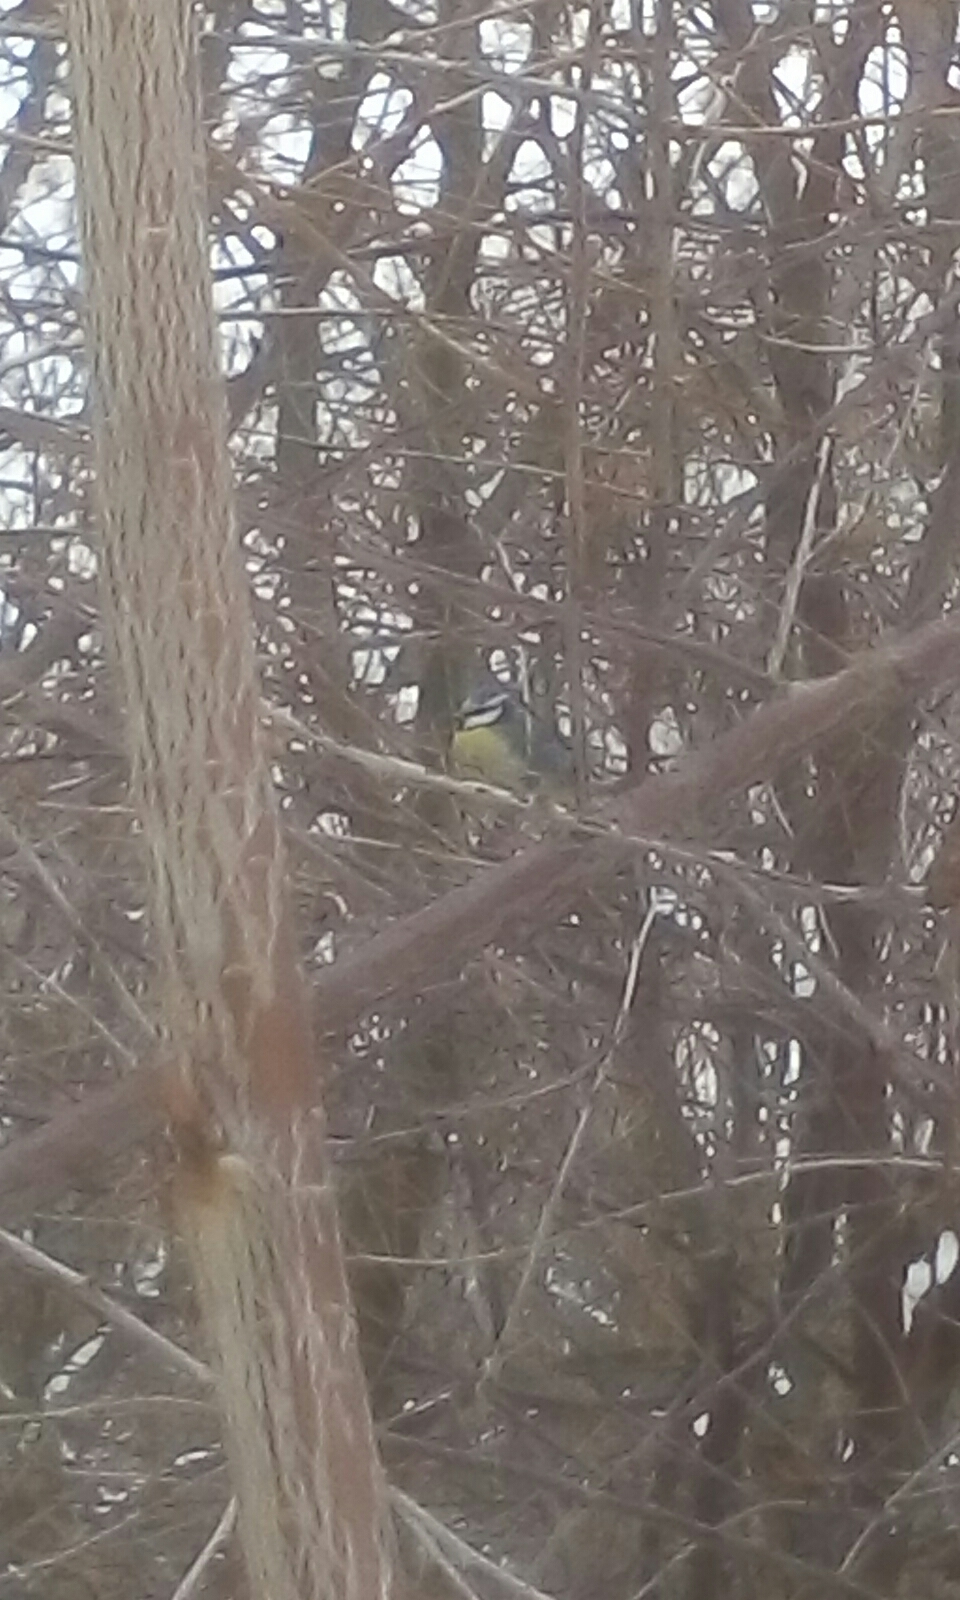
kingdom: Animalia
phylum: Chordata
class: Aves
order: Passeriformes
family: Paridae
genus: Cyanistes
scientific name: Cyanistes caeruleus
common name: Eurasian blue tit
